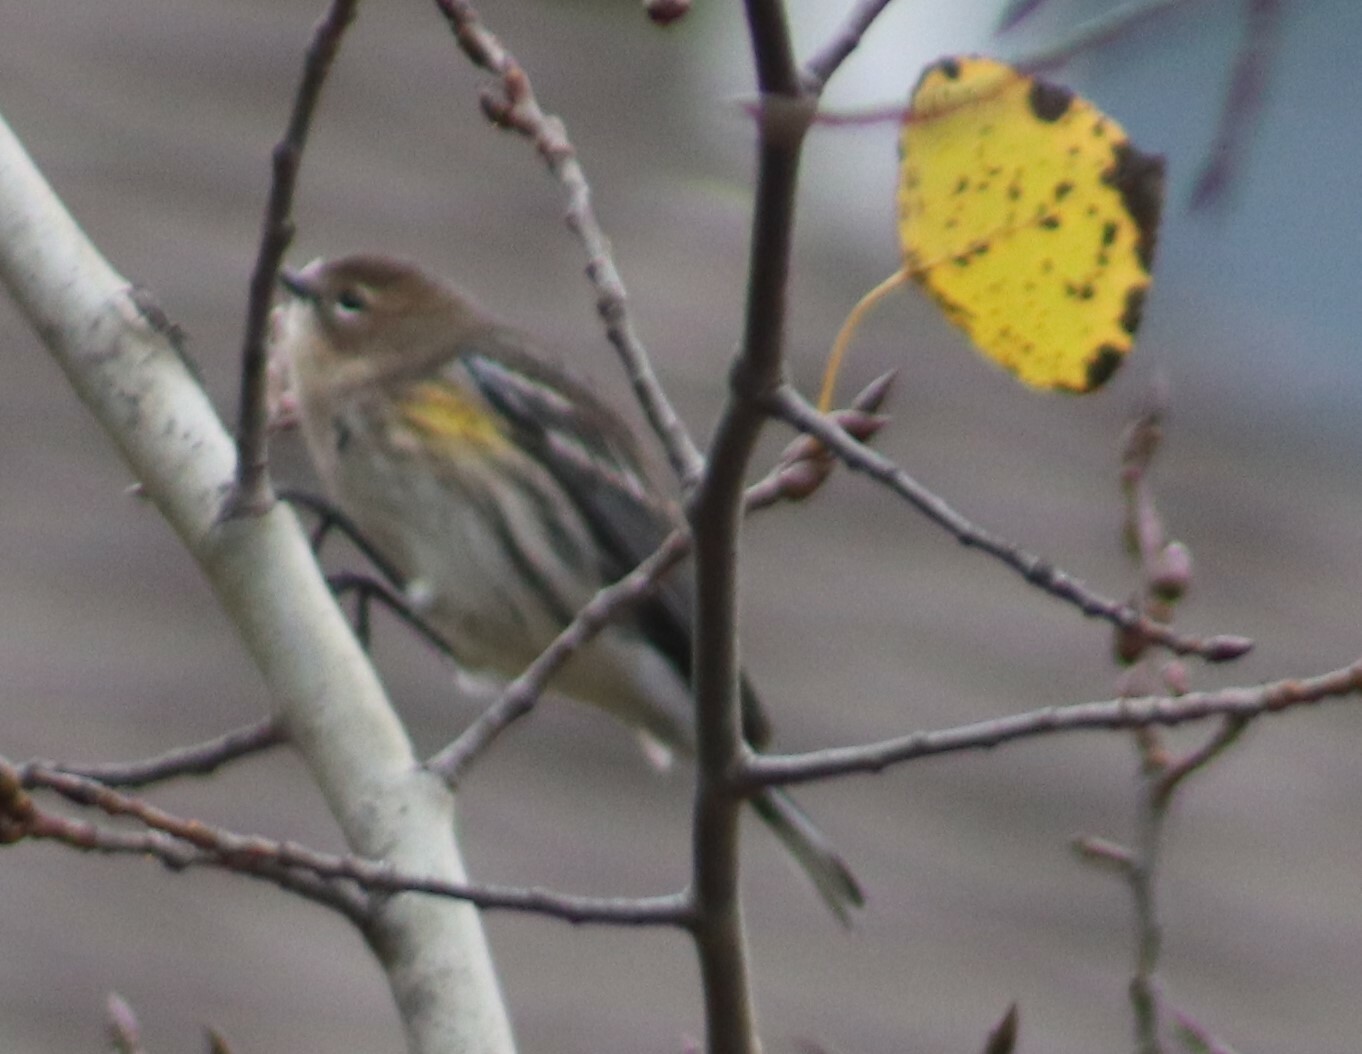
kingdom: Animalia
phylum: Chordata
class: Aves
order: Passeriformes
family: Parulidae
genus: Setophaga
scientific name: Setophaga coronata
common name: Myrtle warbler
